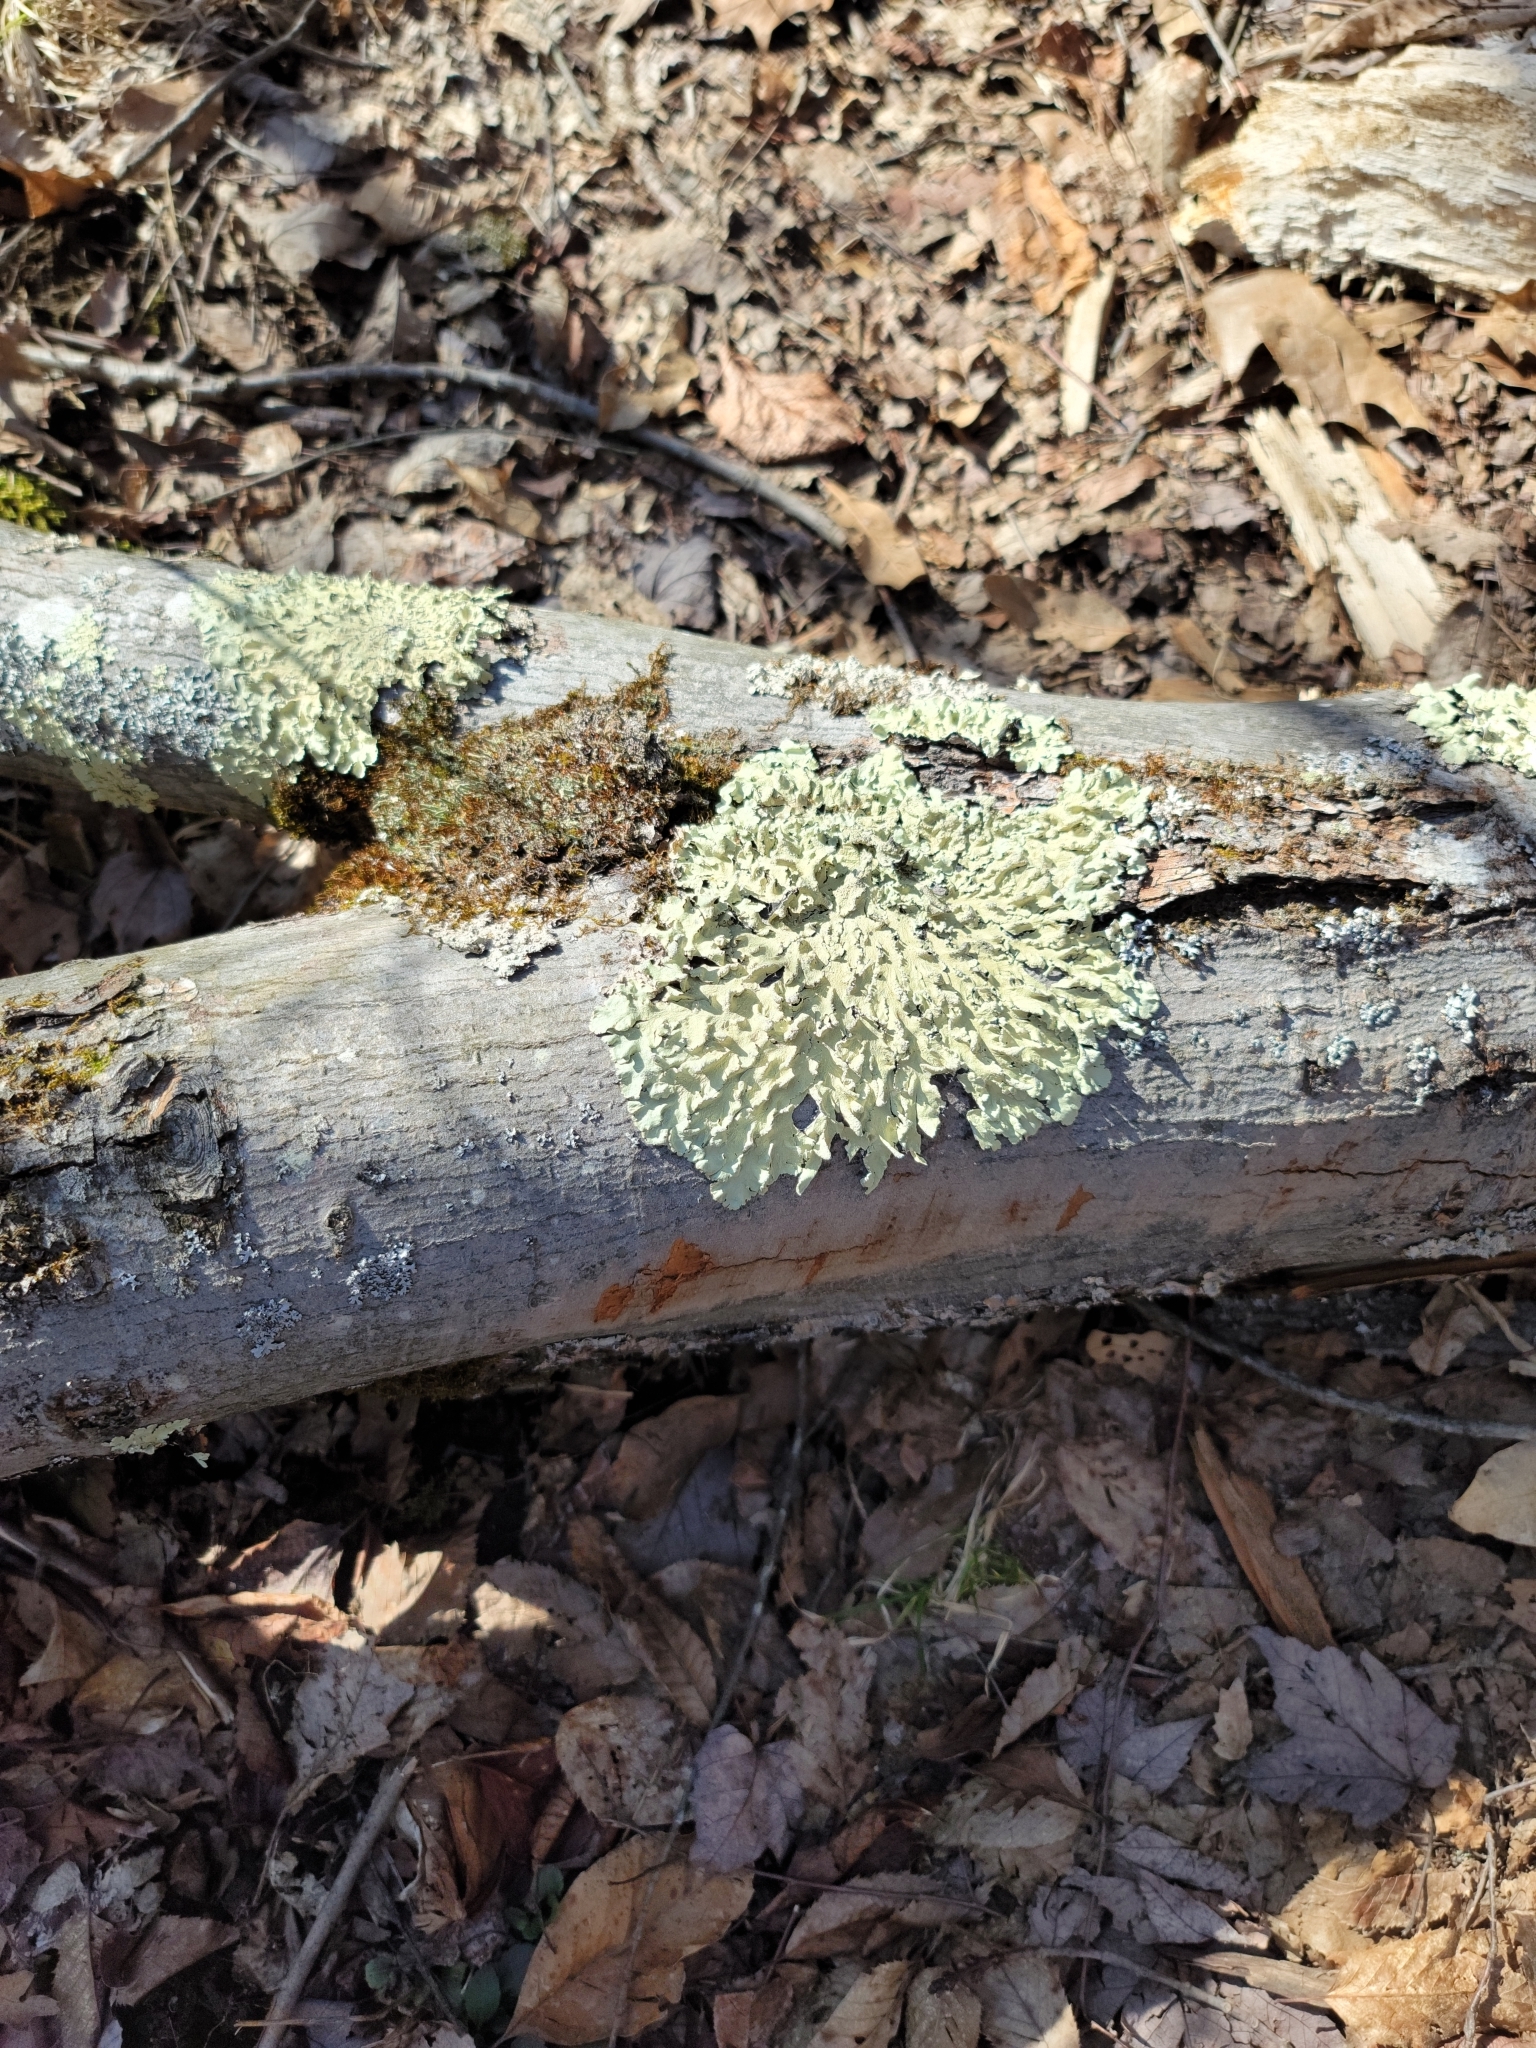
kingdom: Fungi
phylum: Ascomycota
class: Lecanoromycetes
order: Lecanorales
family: Parmeliaceae
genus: Flavoparmelia
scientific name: Flavoparmelia caperata
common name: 40-mile per hour lichen
